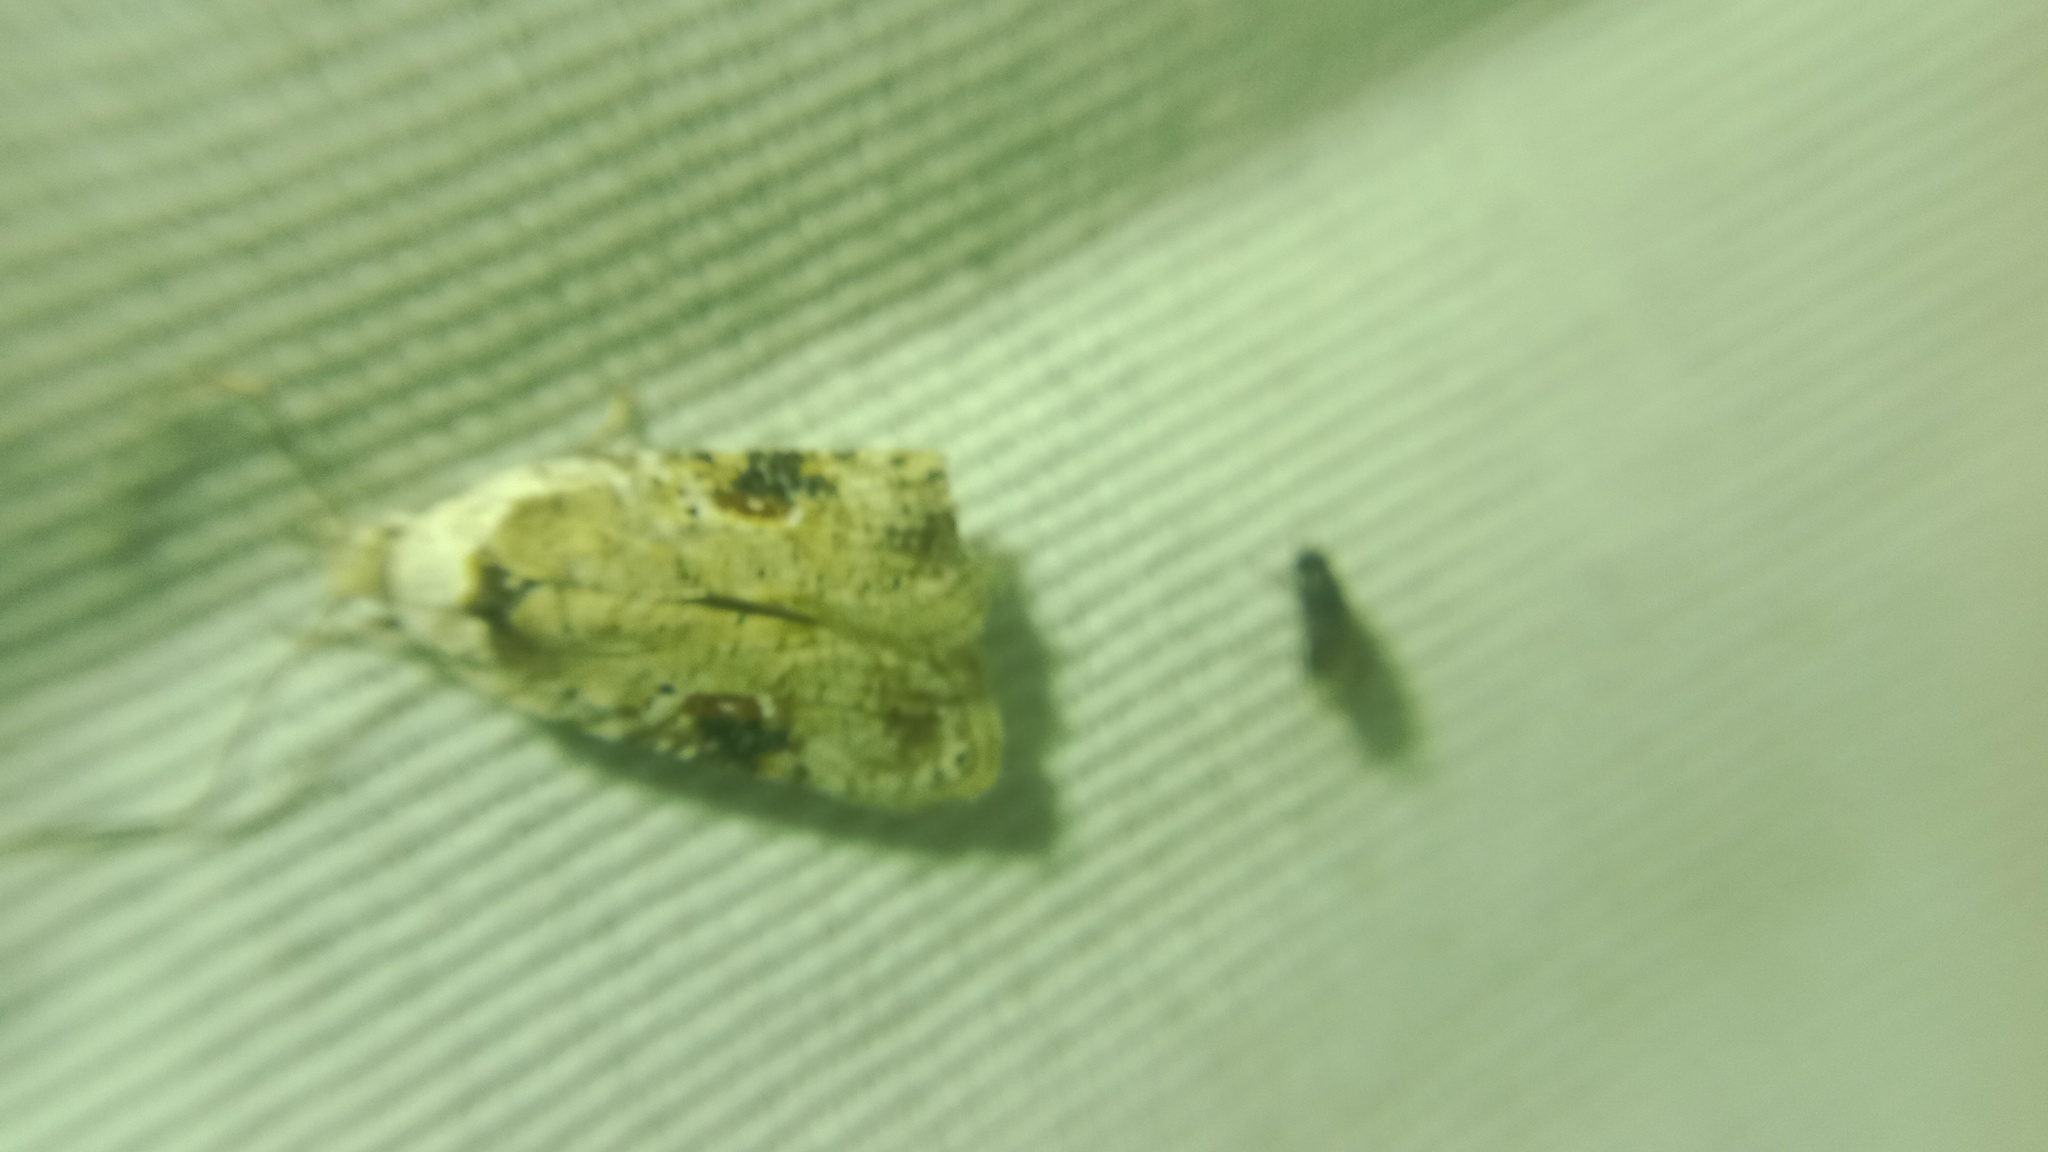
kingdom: Animalia
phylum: Arthropoda
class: Insecta
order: Lepidoptera
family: Depressariidae
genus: Agonopterix
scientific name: Agonopterix alstroemeriana
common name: Moth
